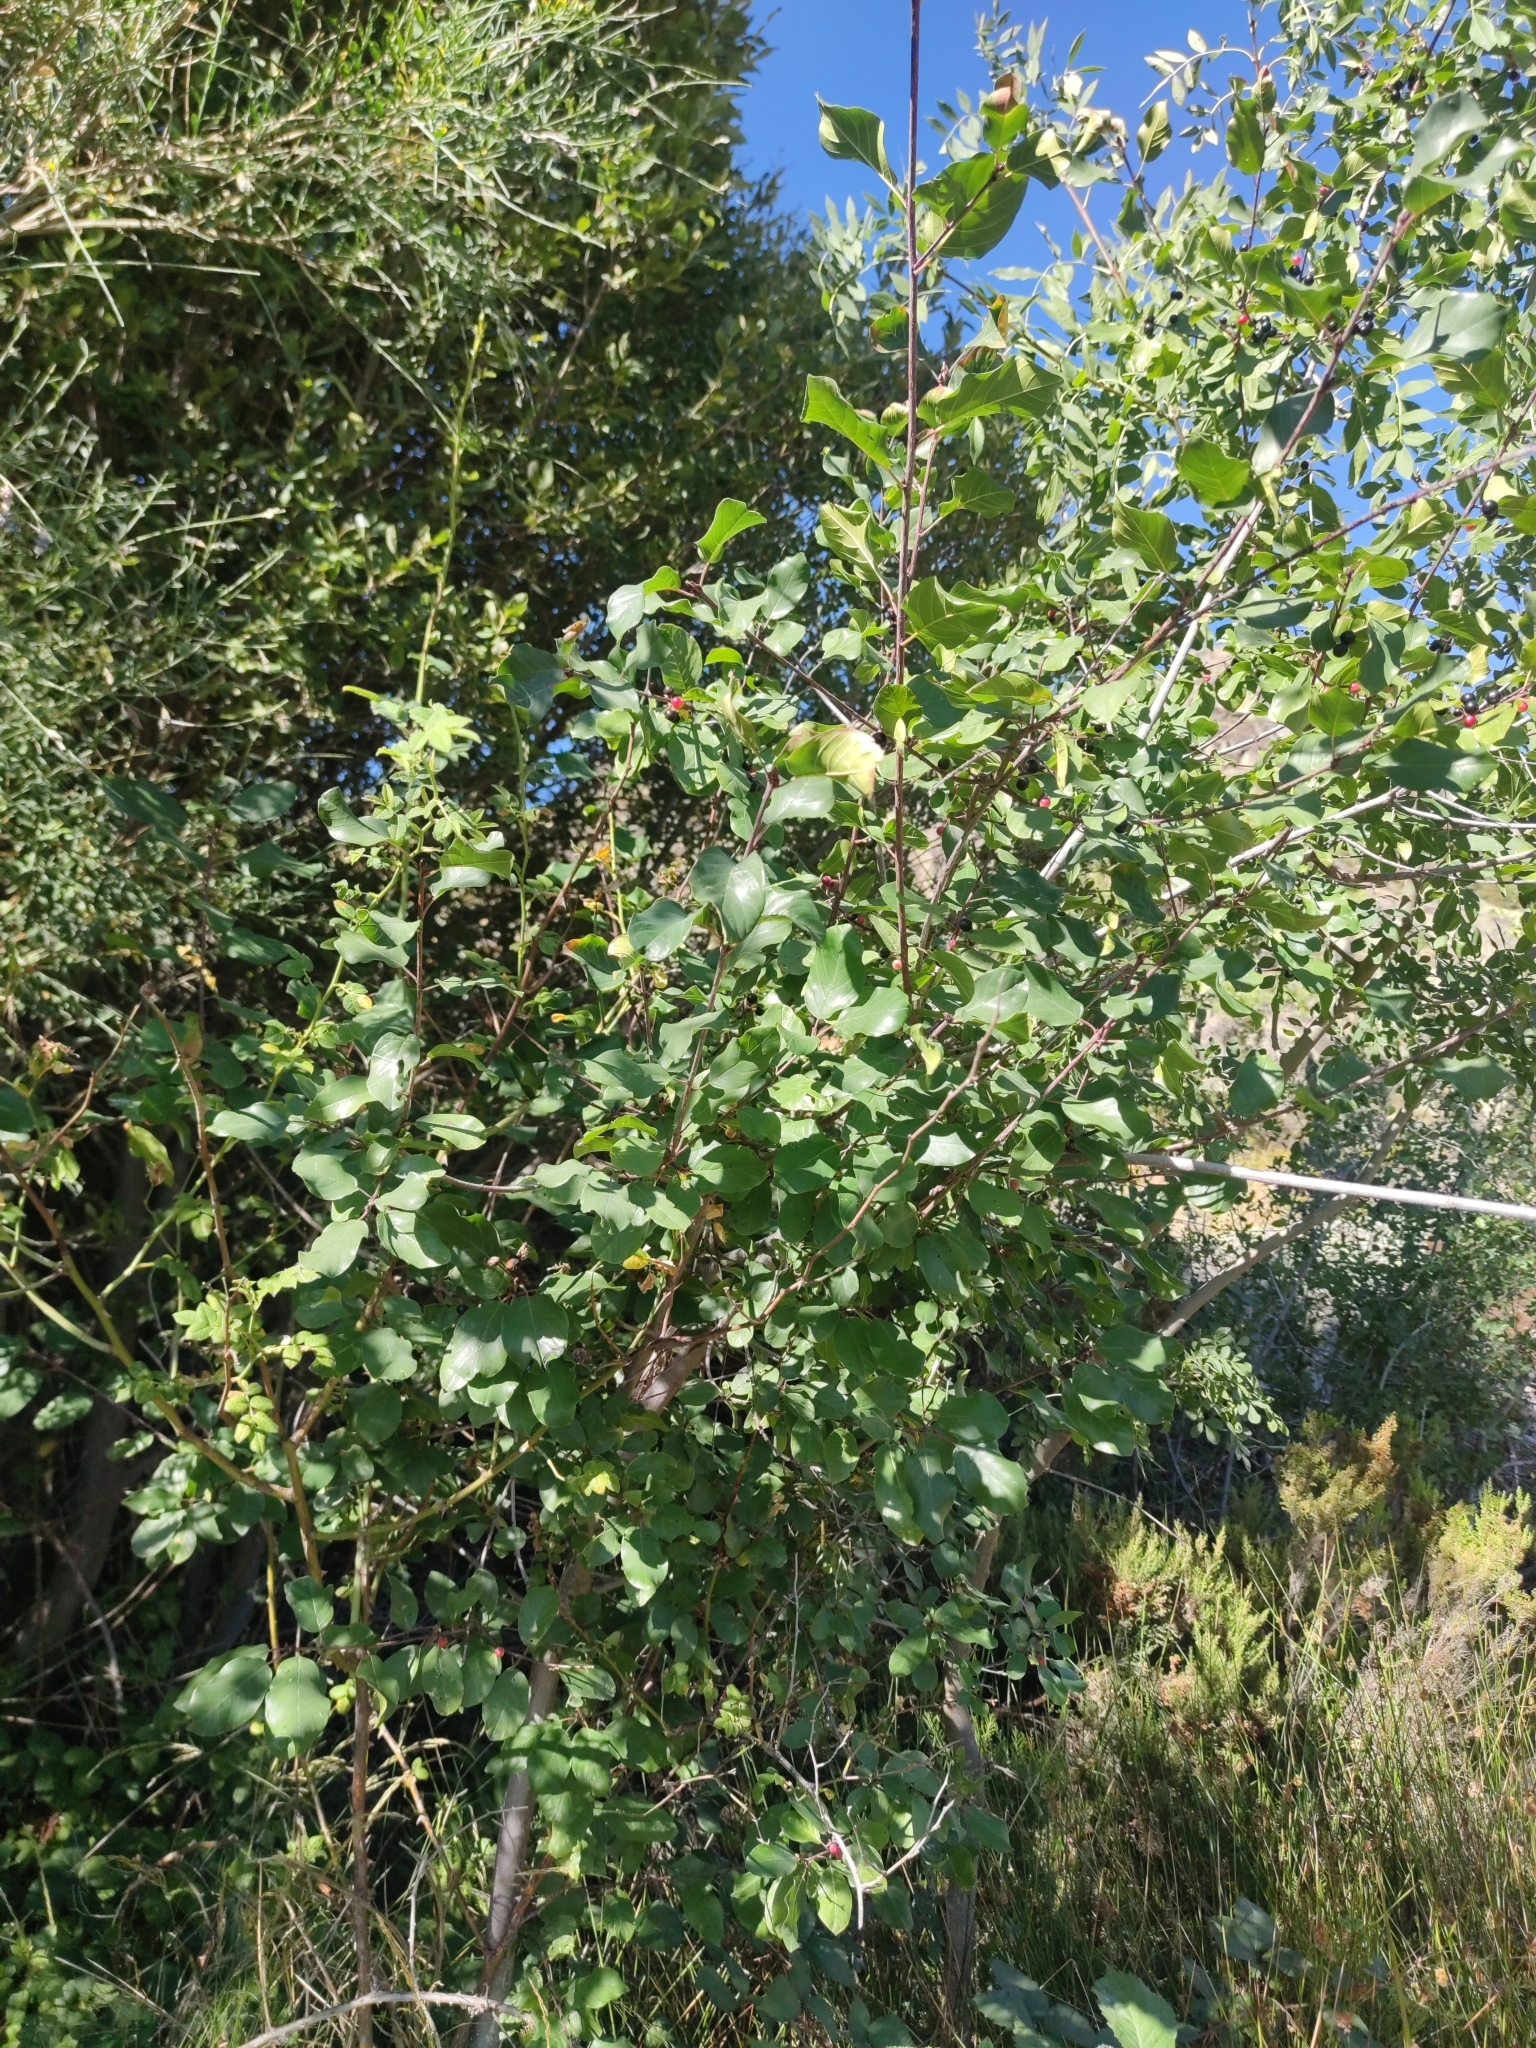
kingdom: Plantae
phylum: Tracheophyta
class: Magnoliopsida
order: Rosales
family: Rhamnaceae
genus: Frangula
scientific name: Frangula alnus
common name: Alder buckthorn
